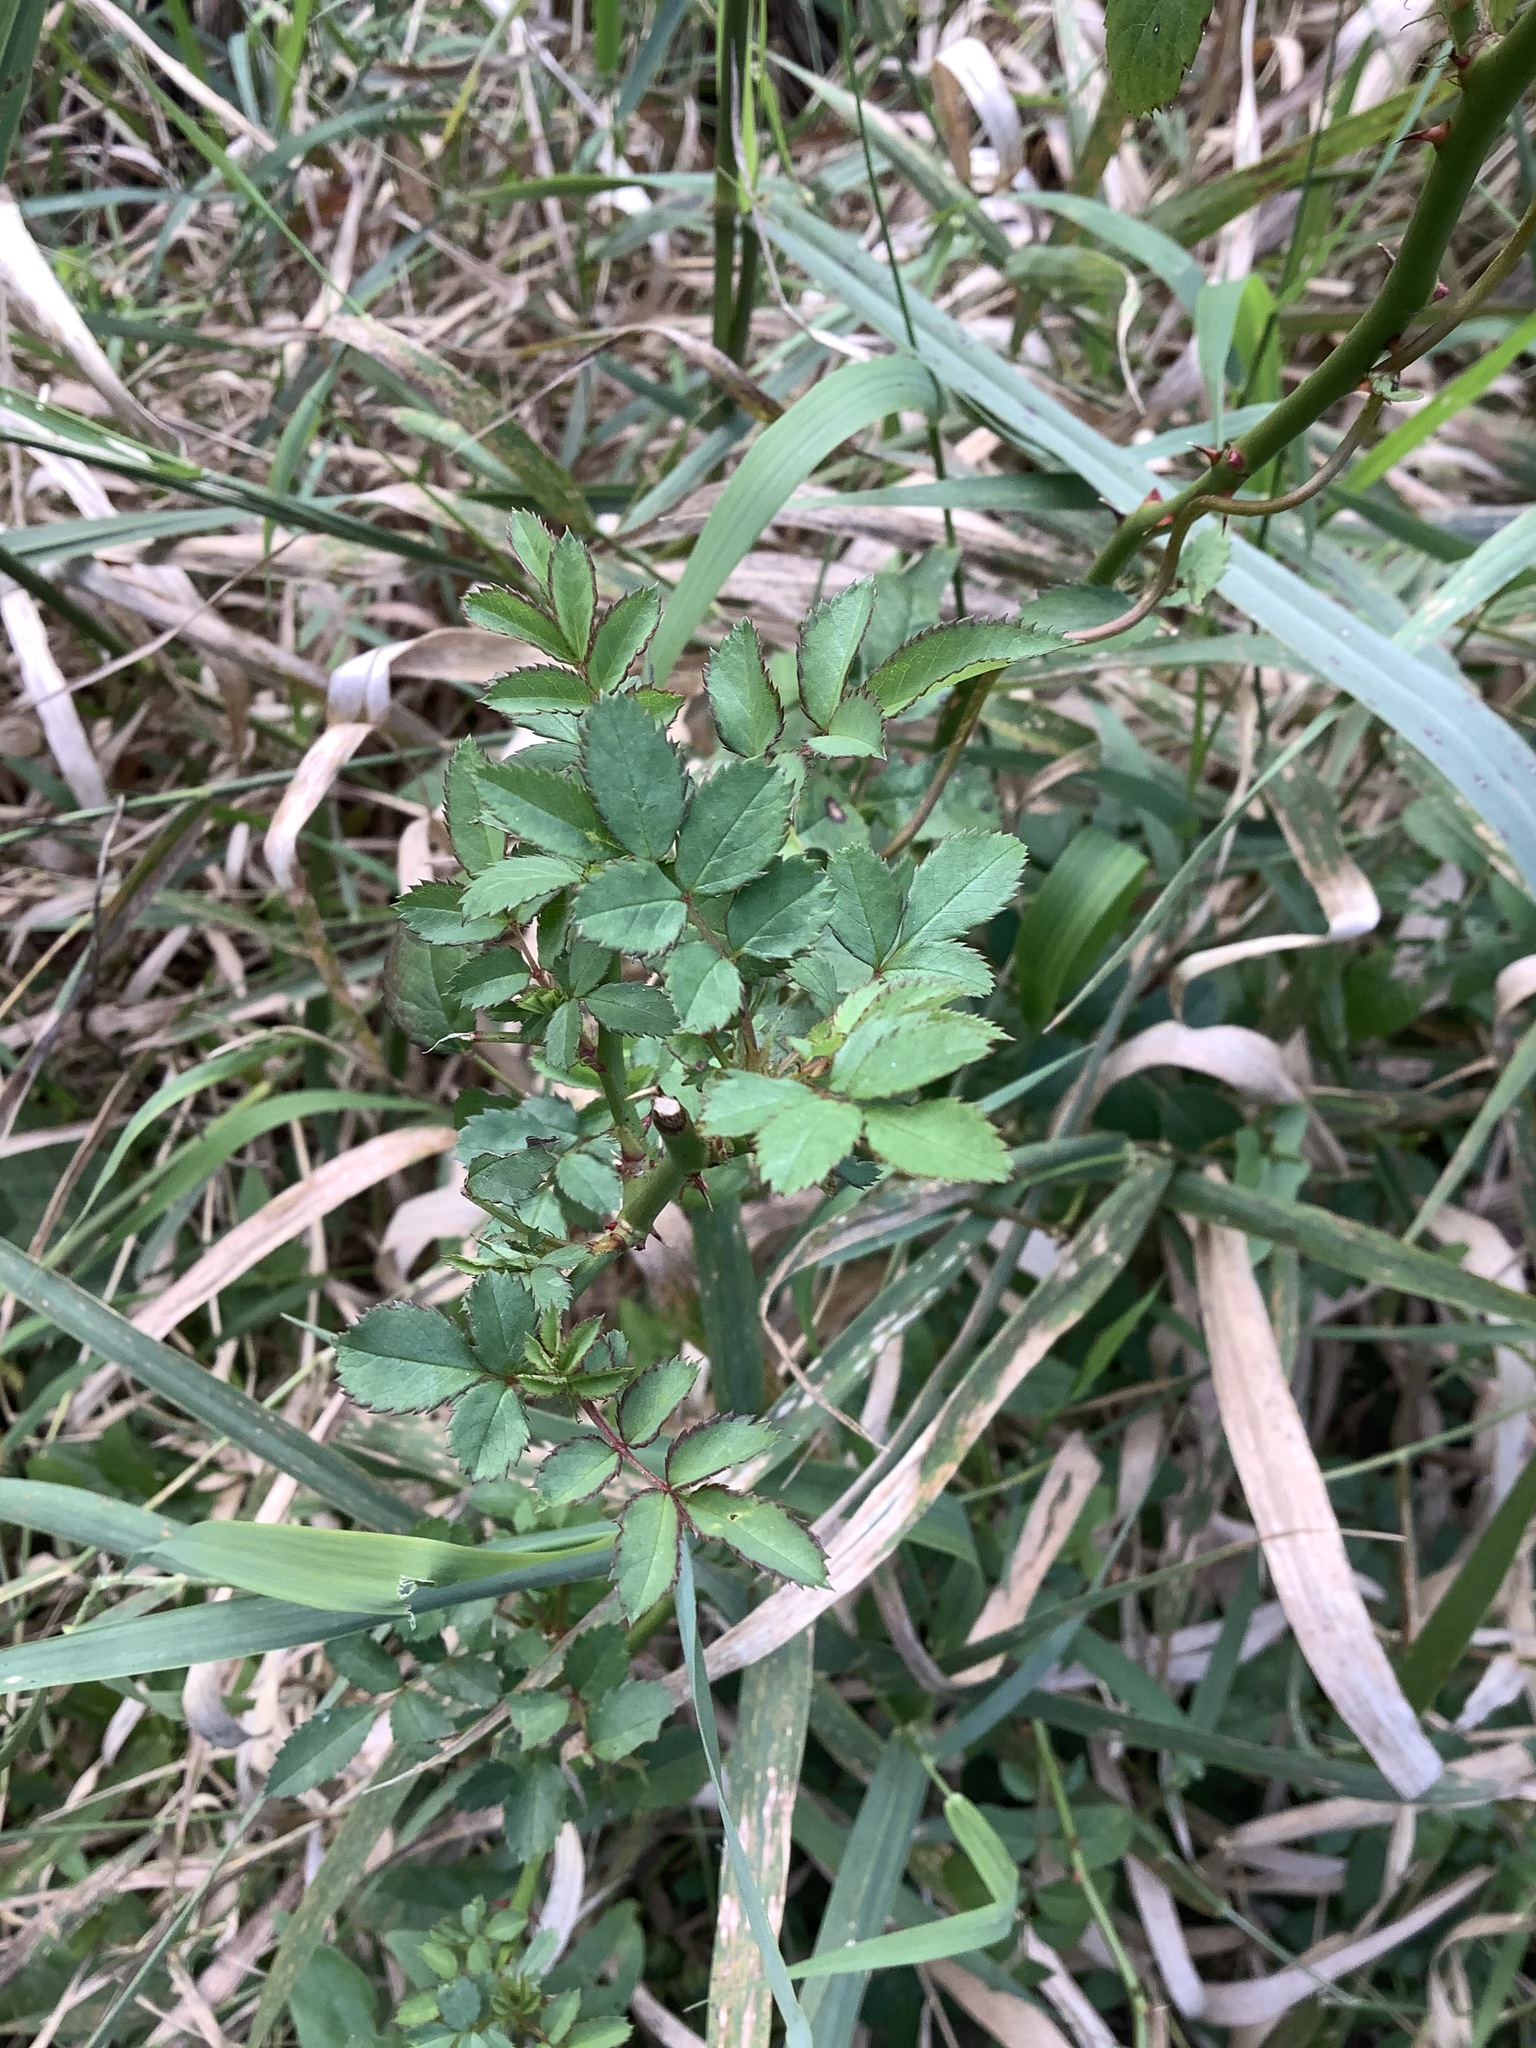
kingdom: Plantae
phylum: Tracheophyta
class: Magnoliopsida
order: Rosales
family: Rosaceae
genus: Rosa
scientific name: Rosa multiflora
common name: Multiflora rose
